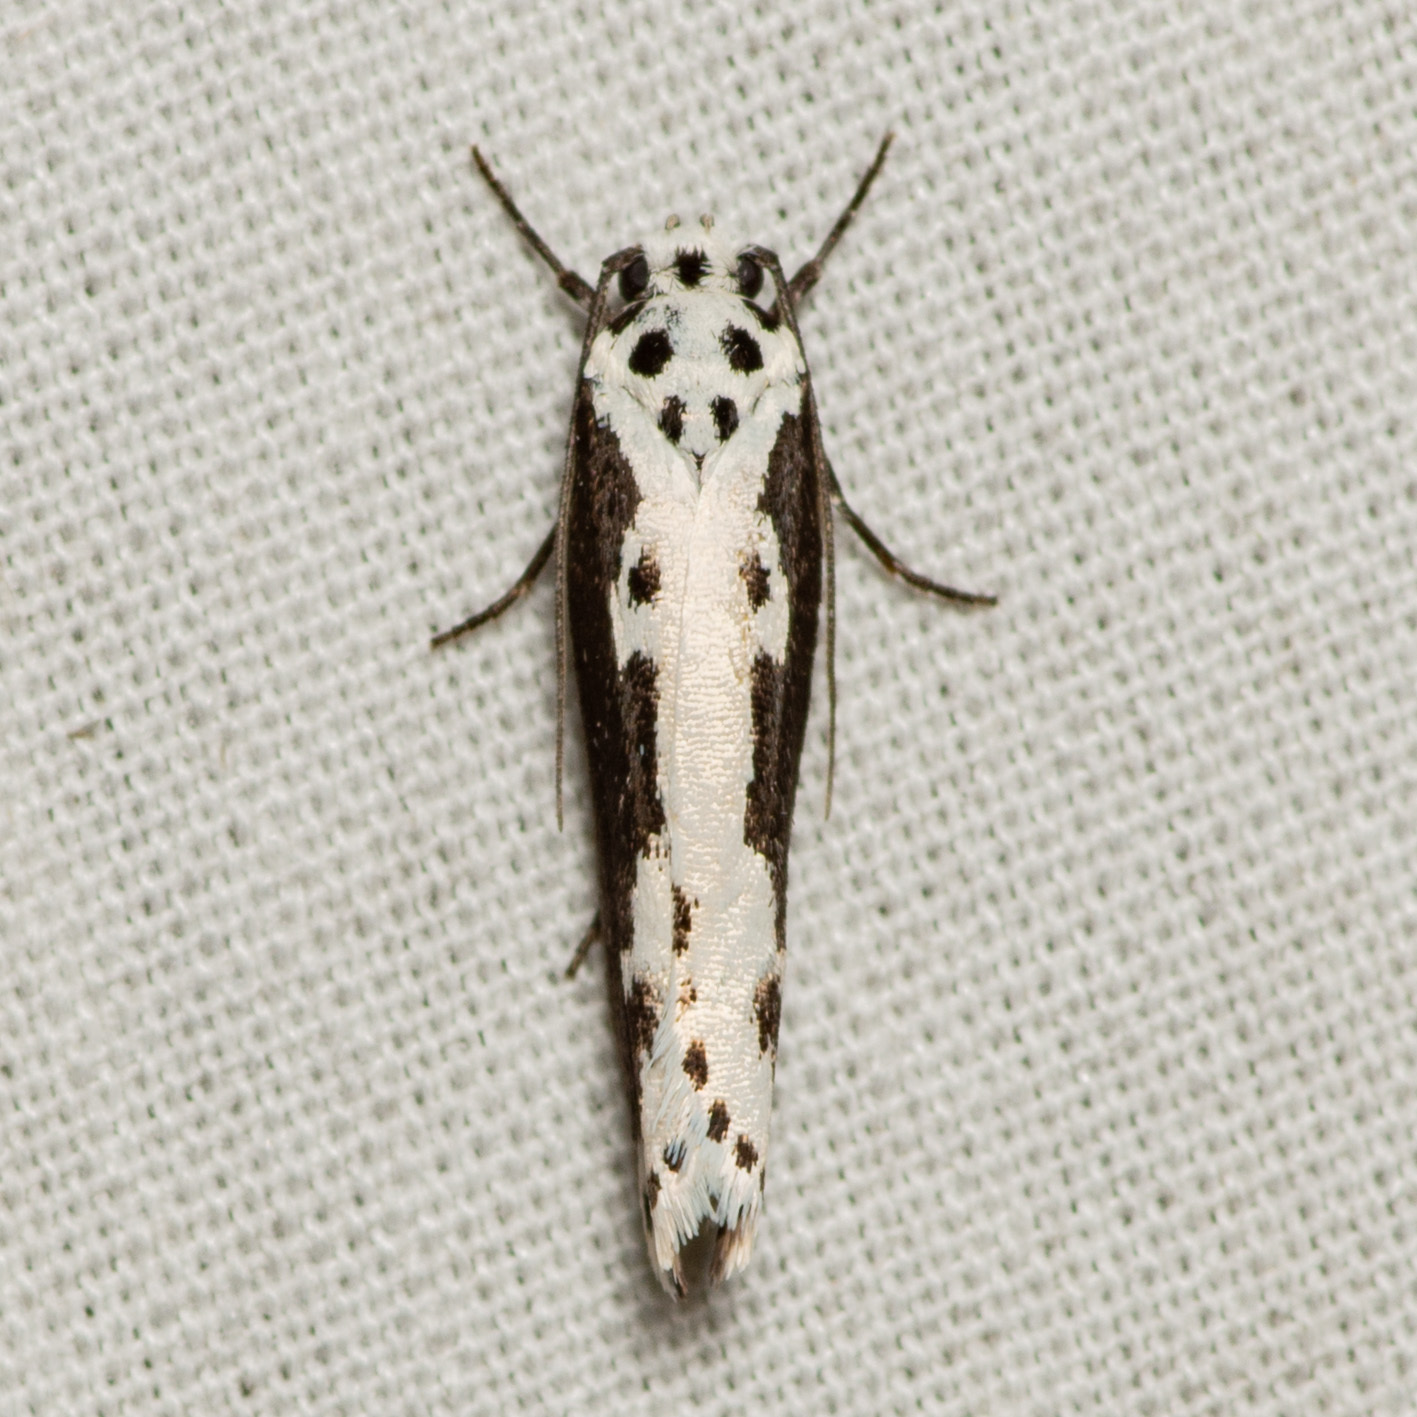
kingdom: Animalia
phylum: Arthropoda
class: Insecta
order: Lepidoptera
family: Ethmiidae
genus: Ethmia
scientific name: Ethmia semilugens
